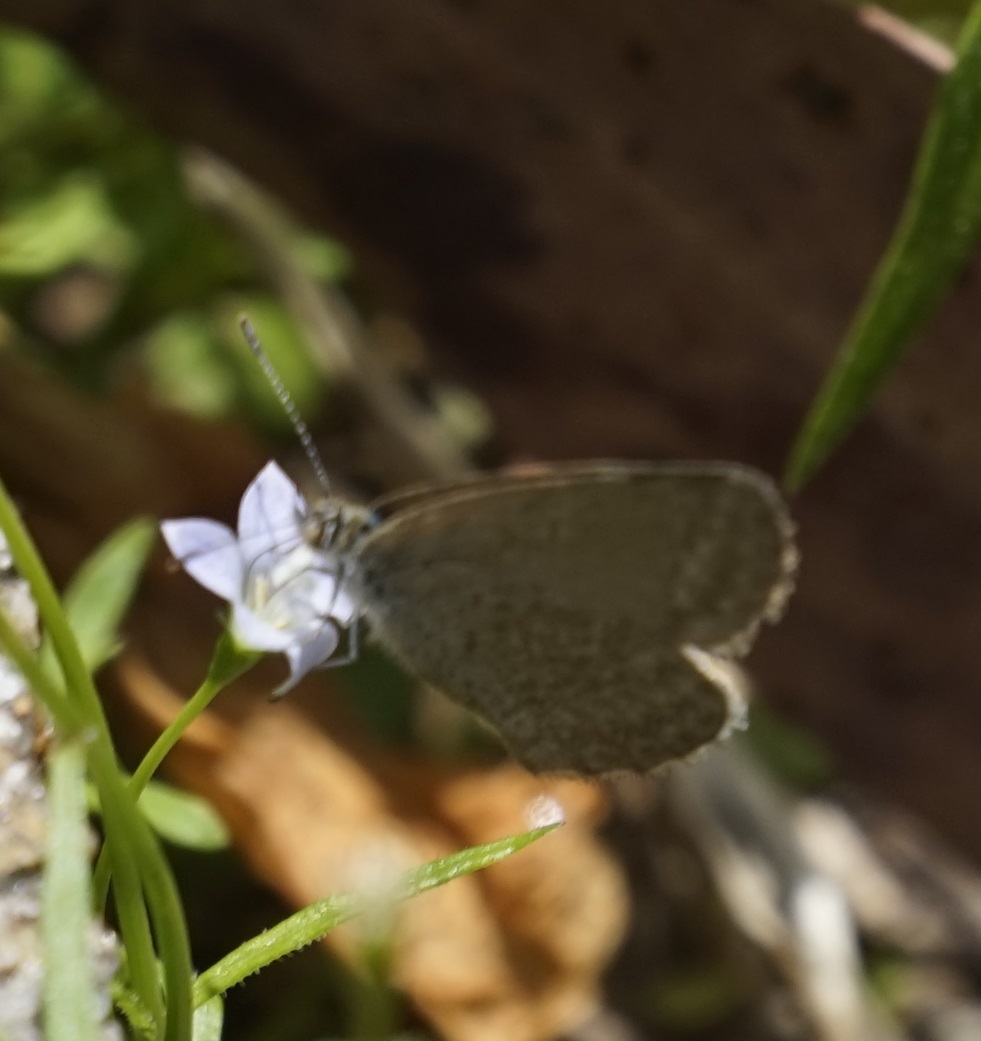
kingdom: Animalia
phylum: Arthropoda
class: Insecta
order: Lepidoptera
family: Lycaenidae
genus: Zizina
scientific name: Zizina labradus
